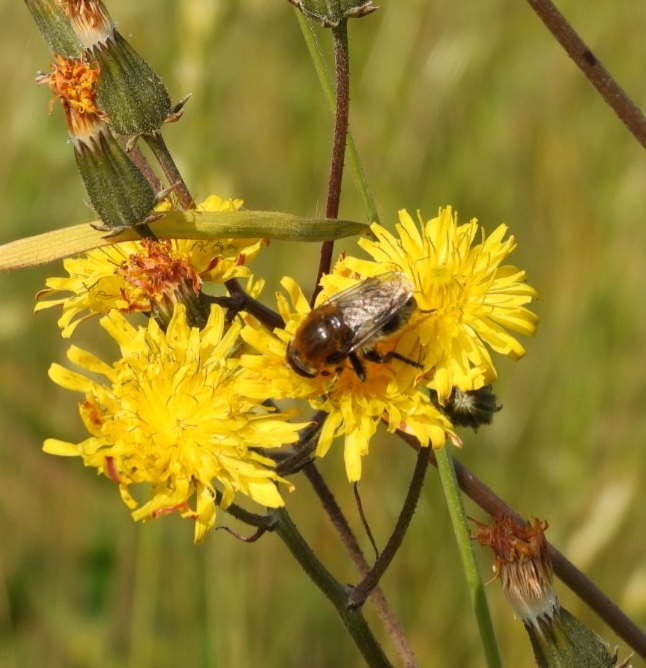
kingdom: Animalia
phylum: Arthropoda
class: Insecta
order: Diptera
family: Syrphidae
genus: Merodon
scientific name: Merodon equestris
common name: Greater bulb-fly
